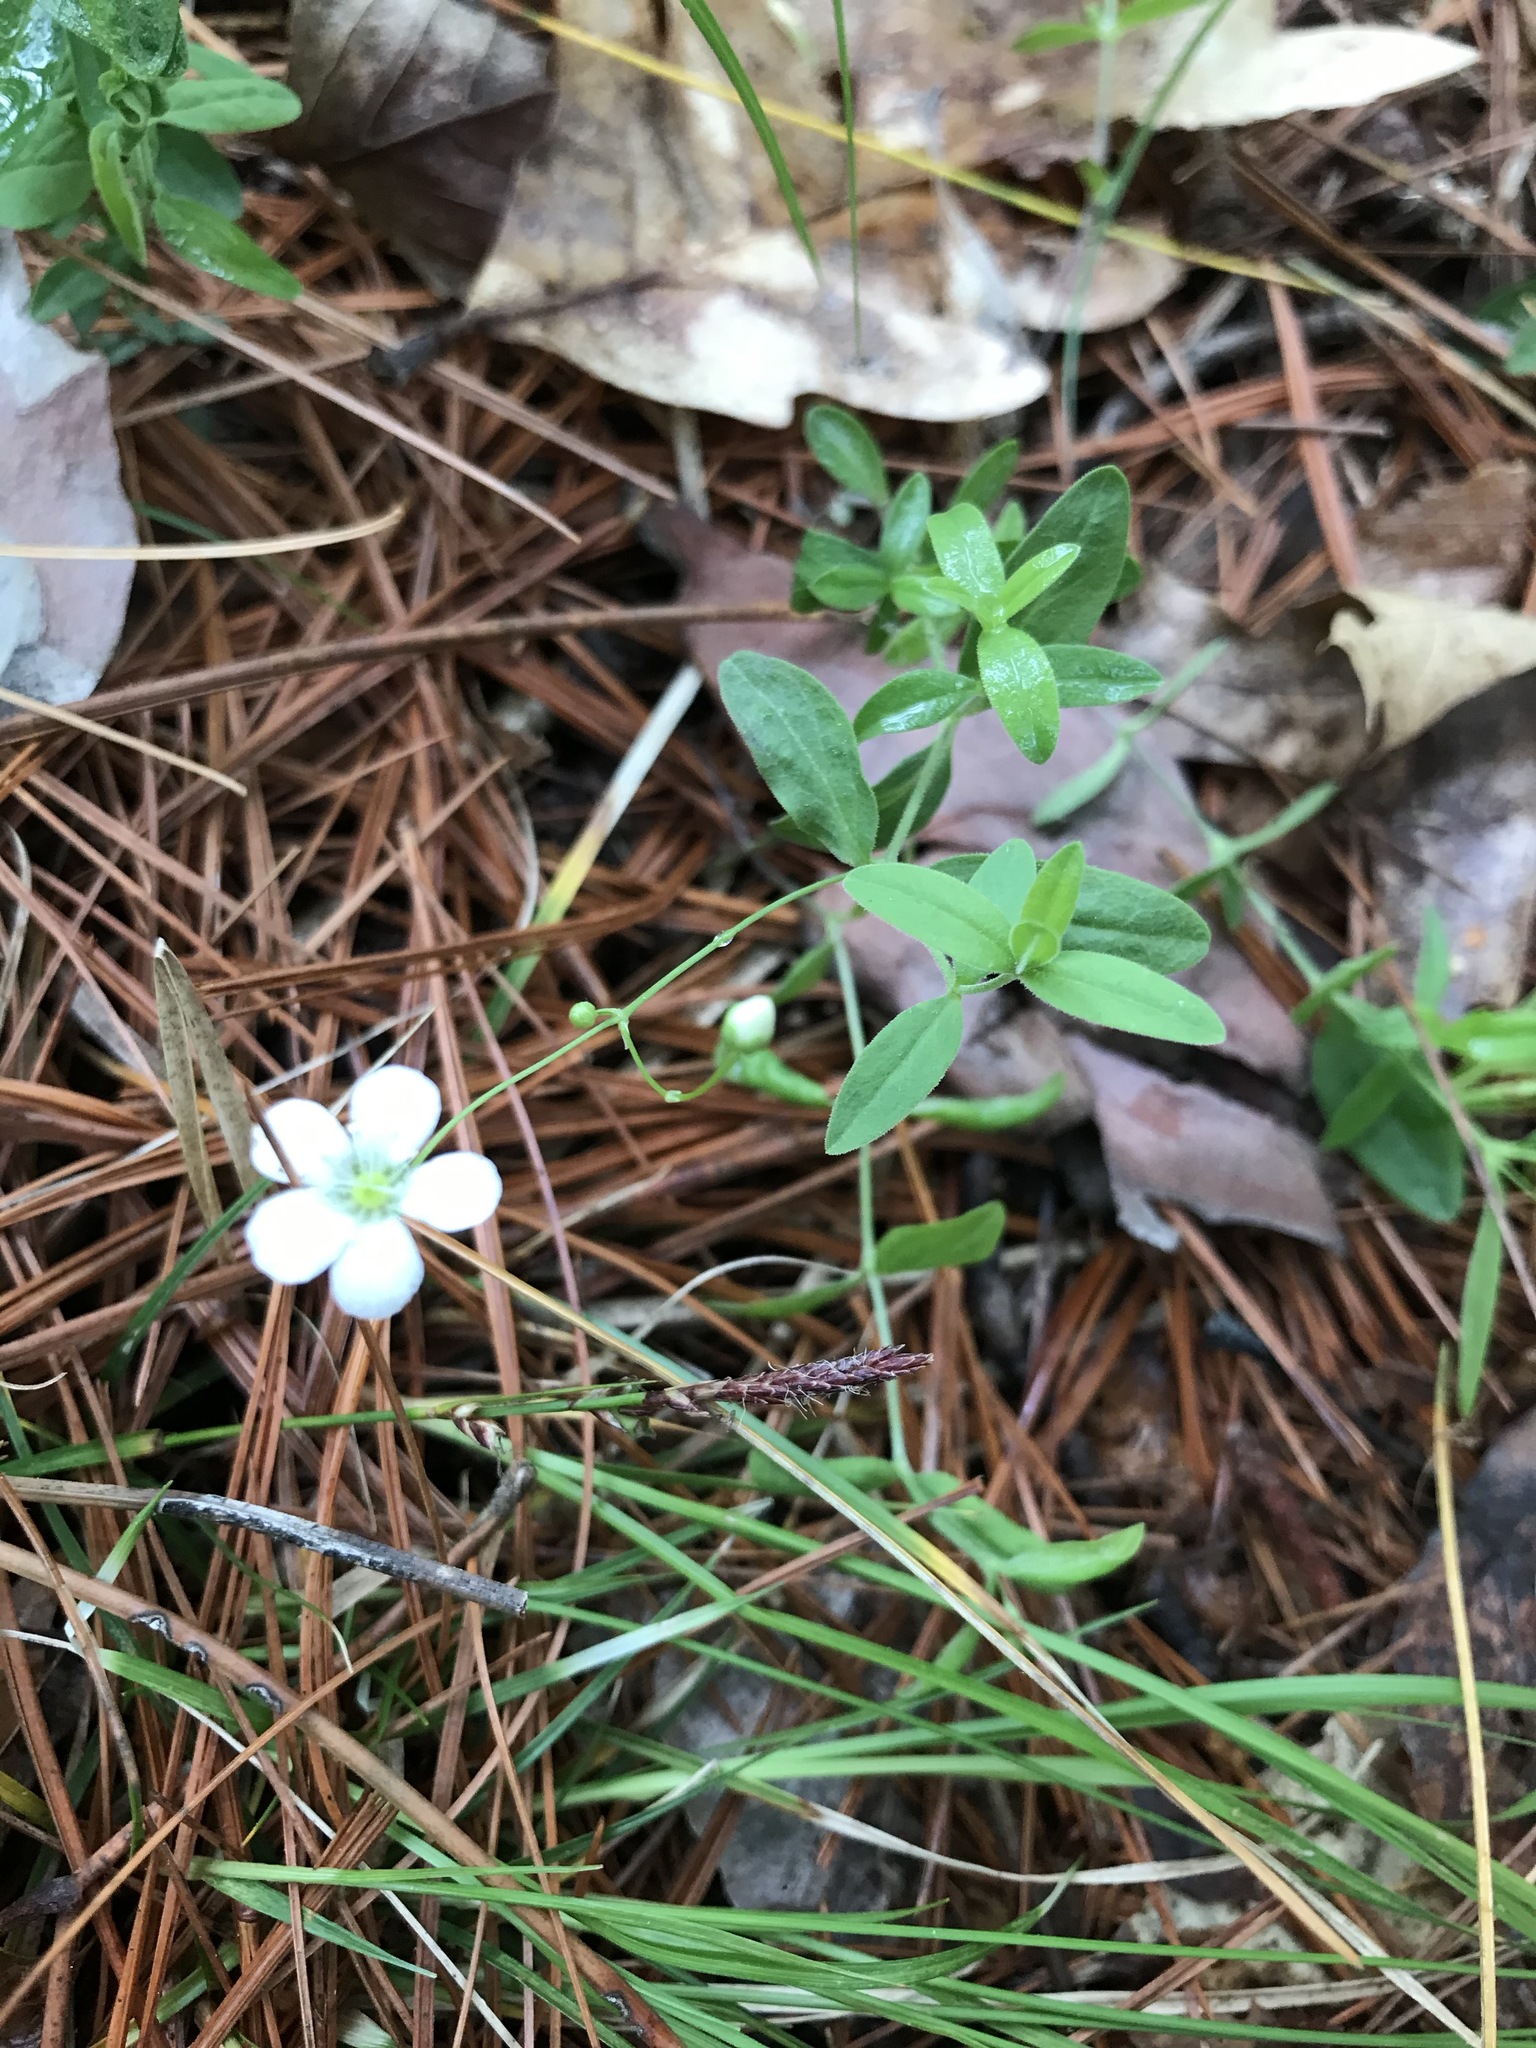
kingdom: Plantae
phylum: Tracheophyta
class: Magnoliopsida
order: Caryophyllales
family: Caryophyllaceae
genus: Moehringia
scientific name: Moehringia lateriflora
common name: Blunt-leaved sandwort
